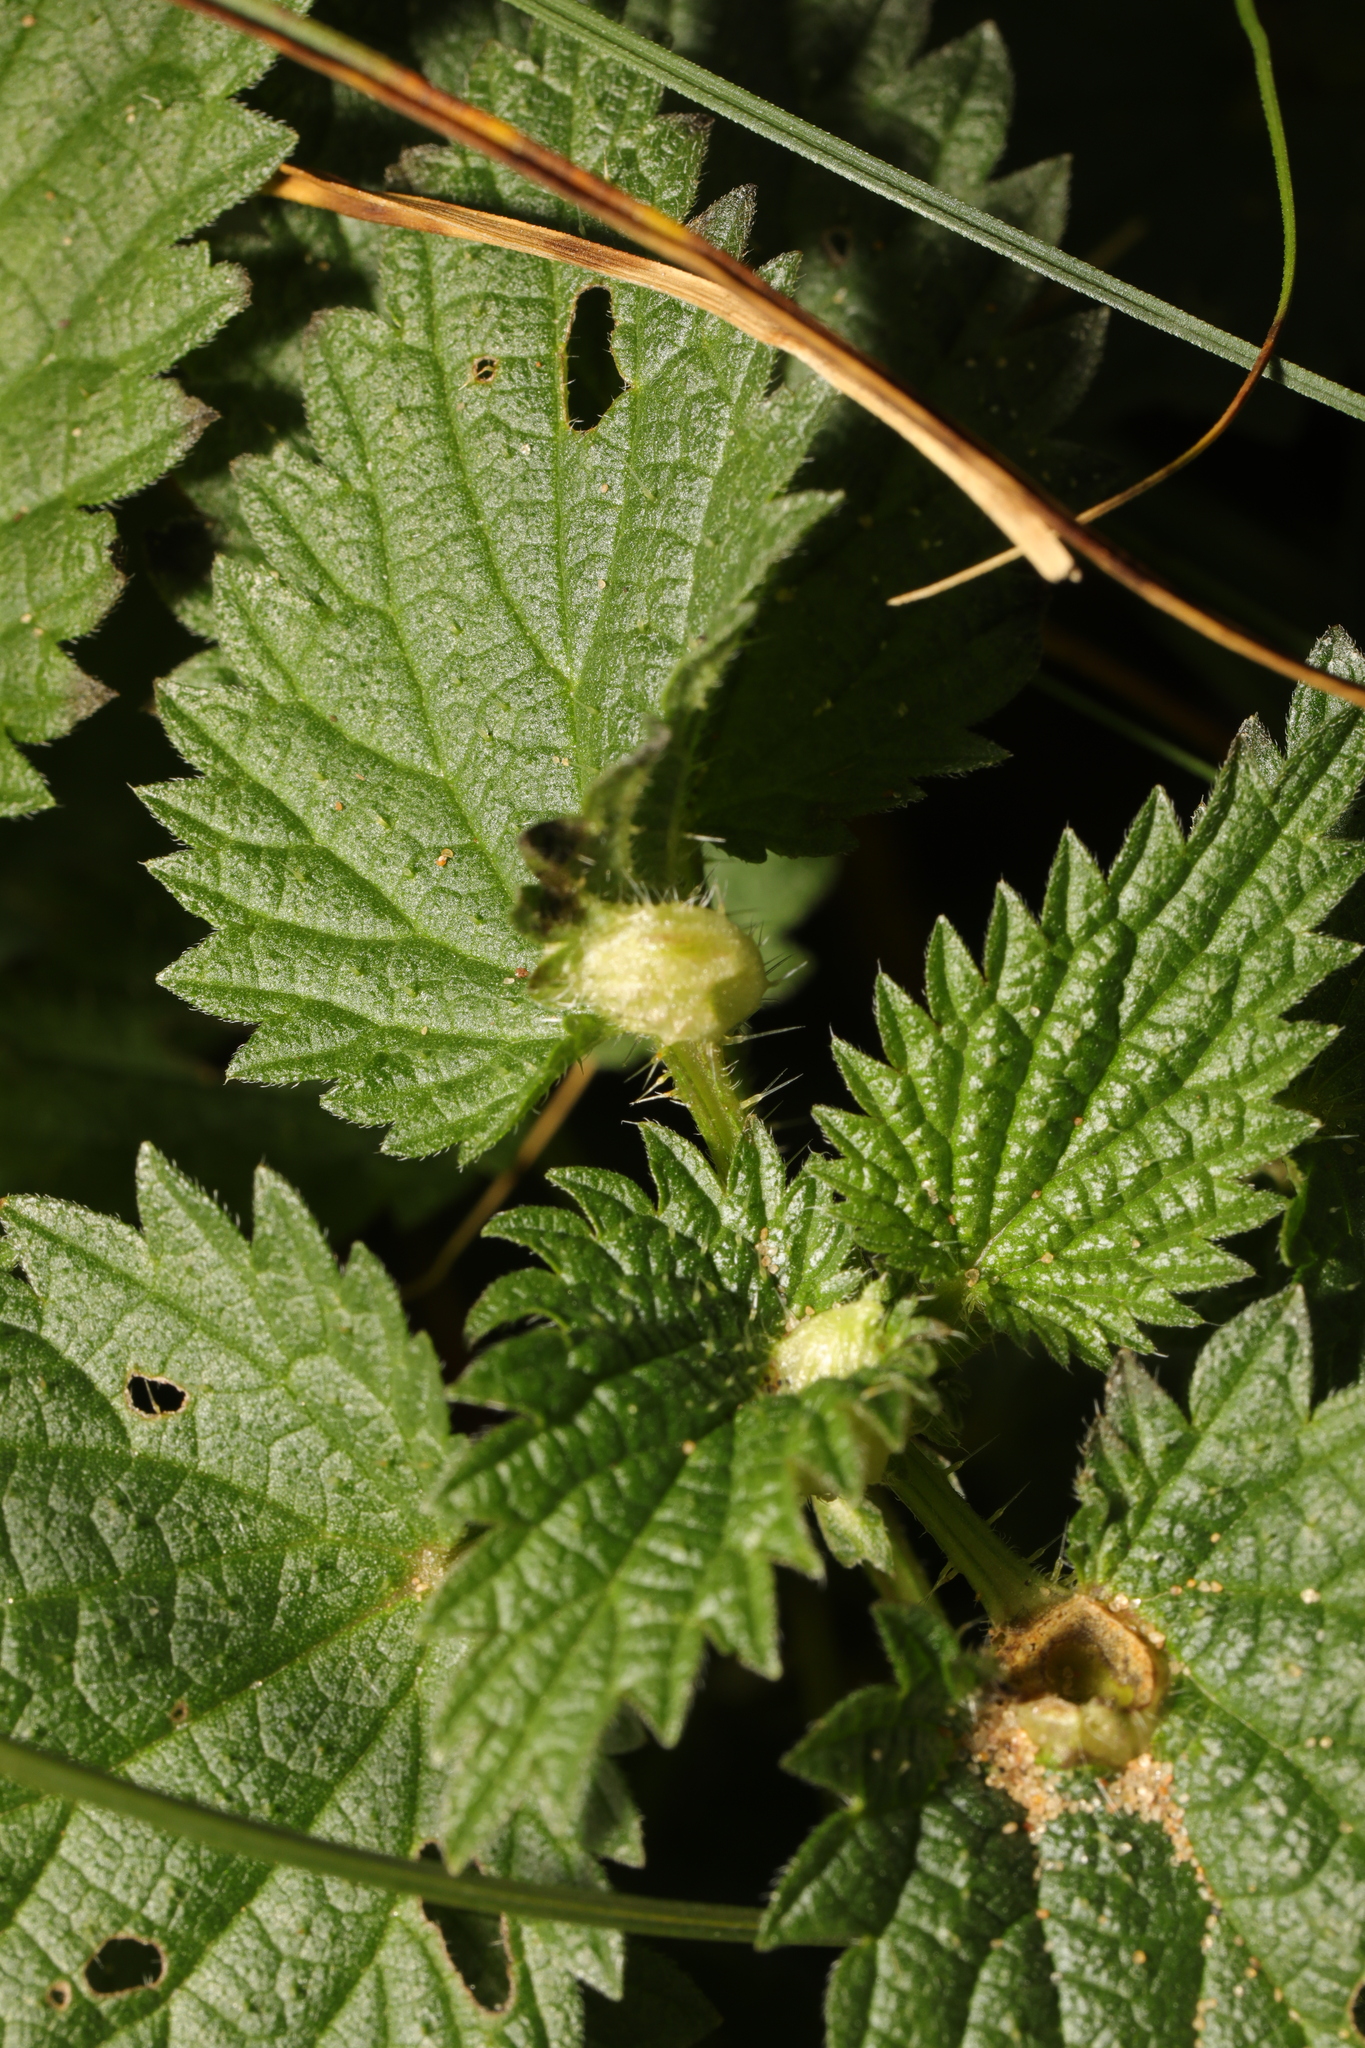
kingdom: Animalia
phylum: Arthropoda
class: Insecta
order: Diptera
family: Cecidomyiidae
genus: Dasineura
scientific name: Dasineura urticae
